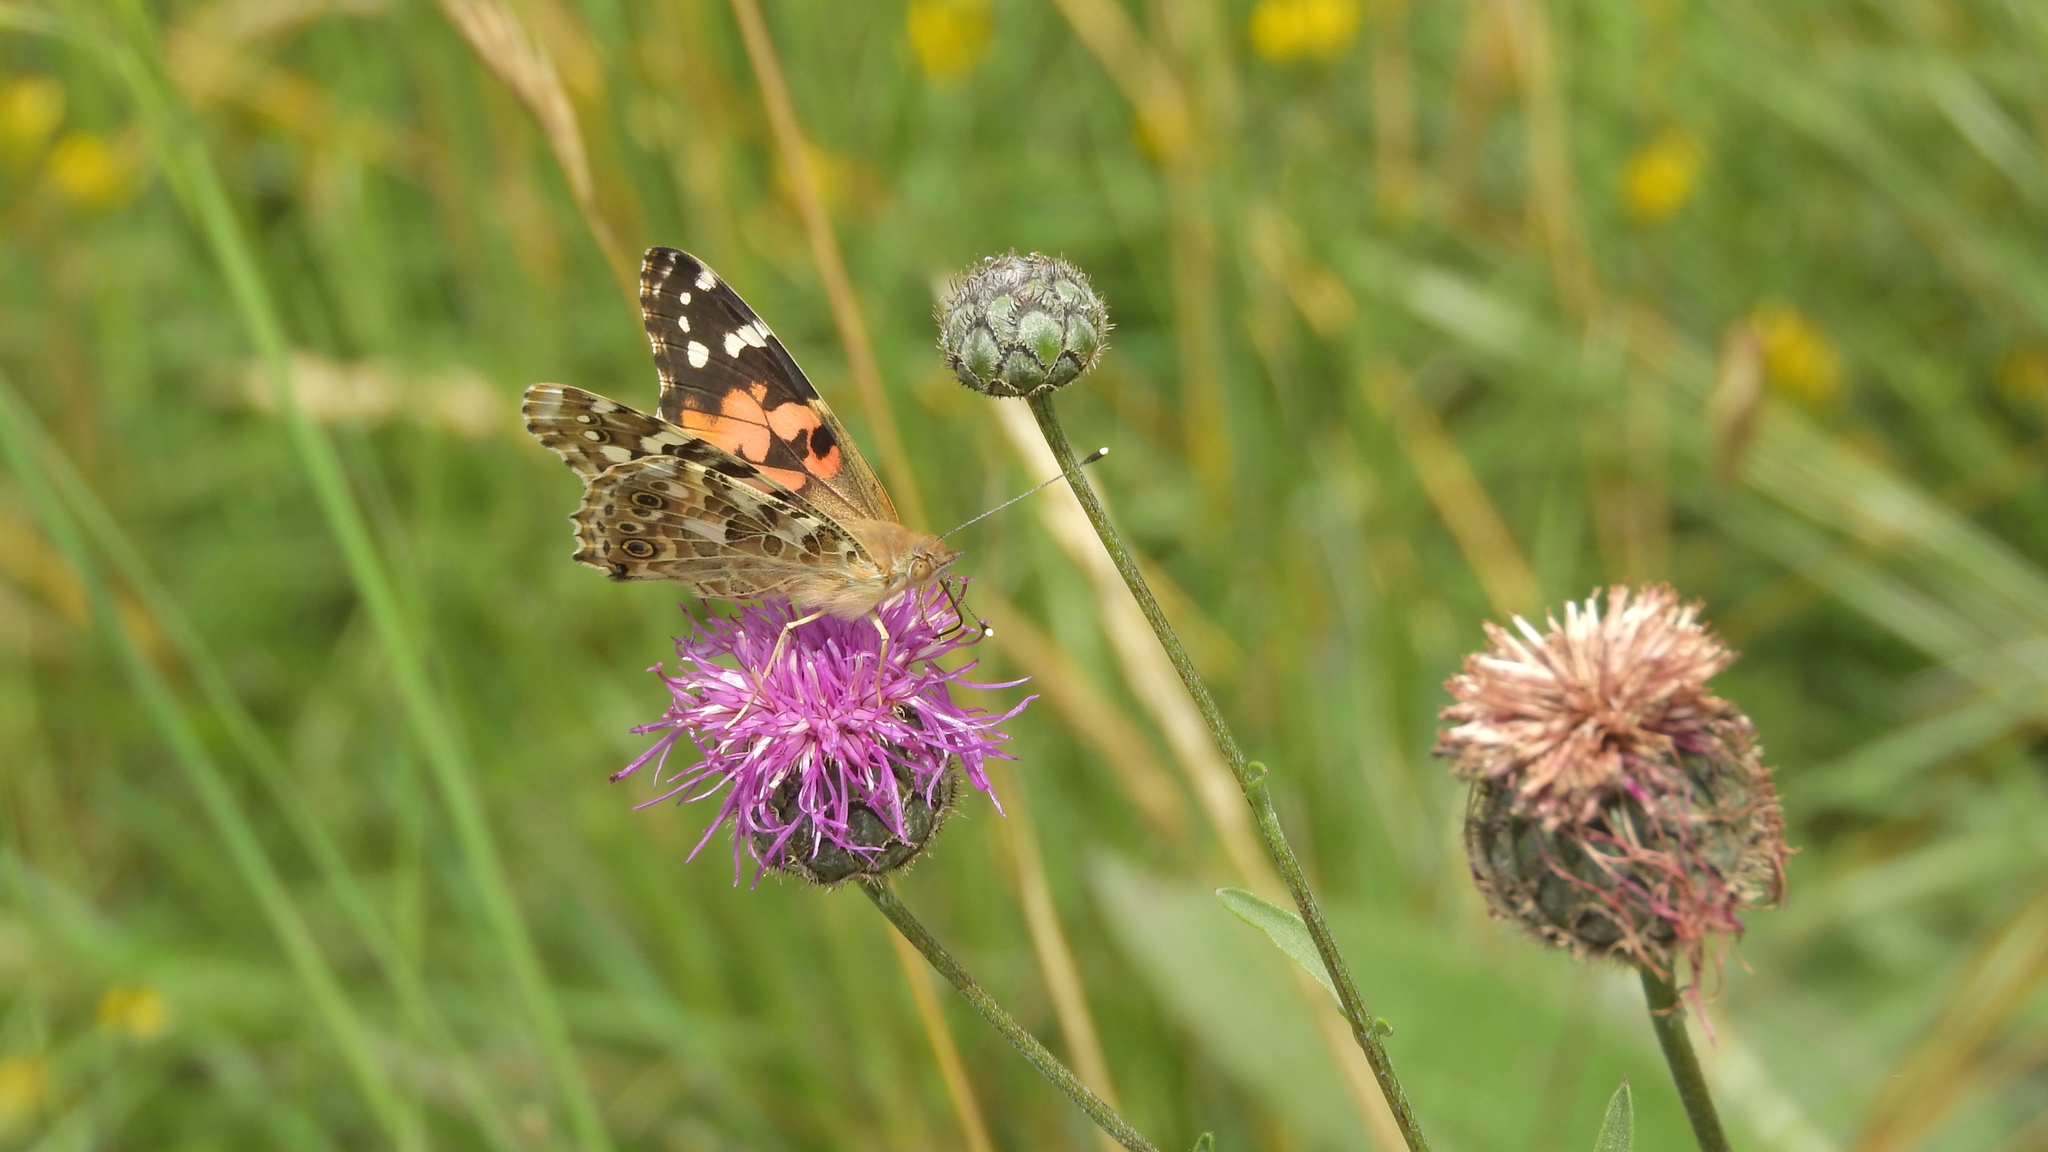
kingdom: Animalia
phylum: Arthropoda
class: Insecta
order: Lepidoptera
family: Nymphalidae
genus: Vanessa
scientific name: Vanessa cardui
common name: Painted lady
